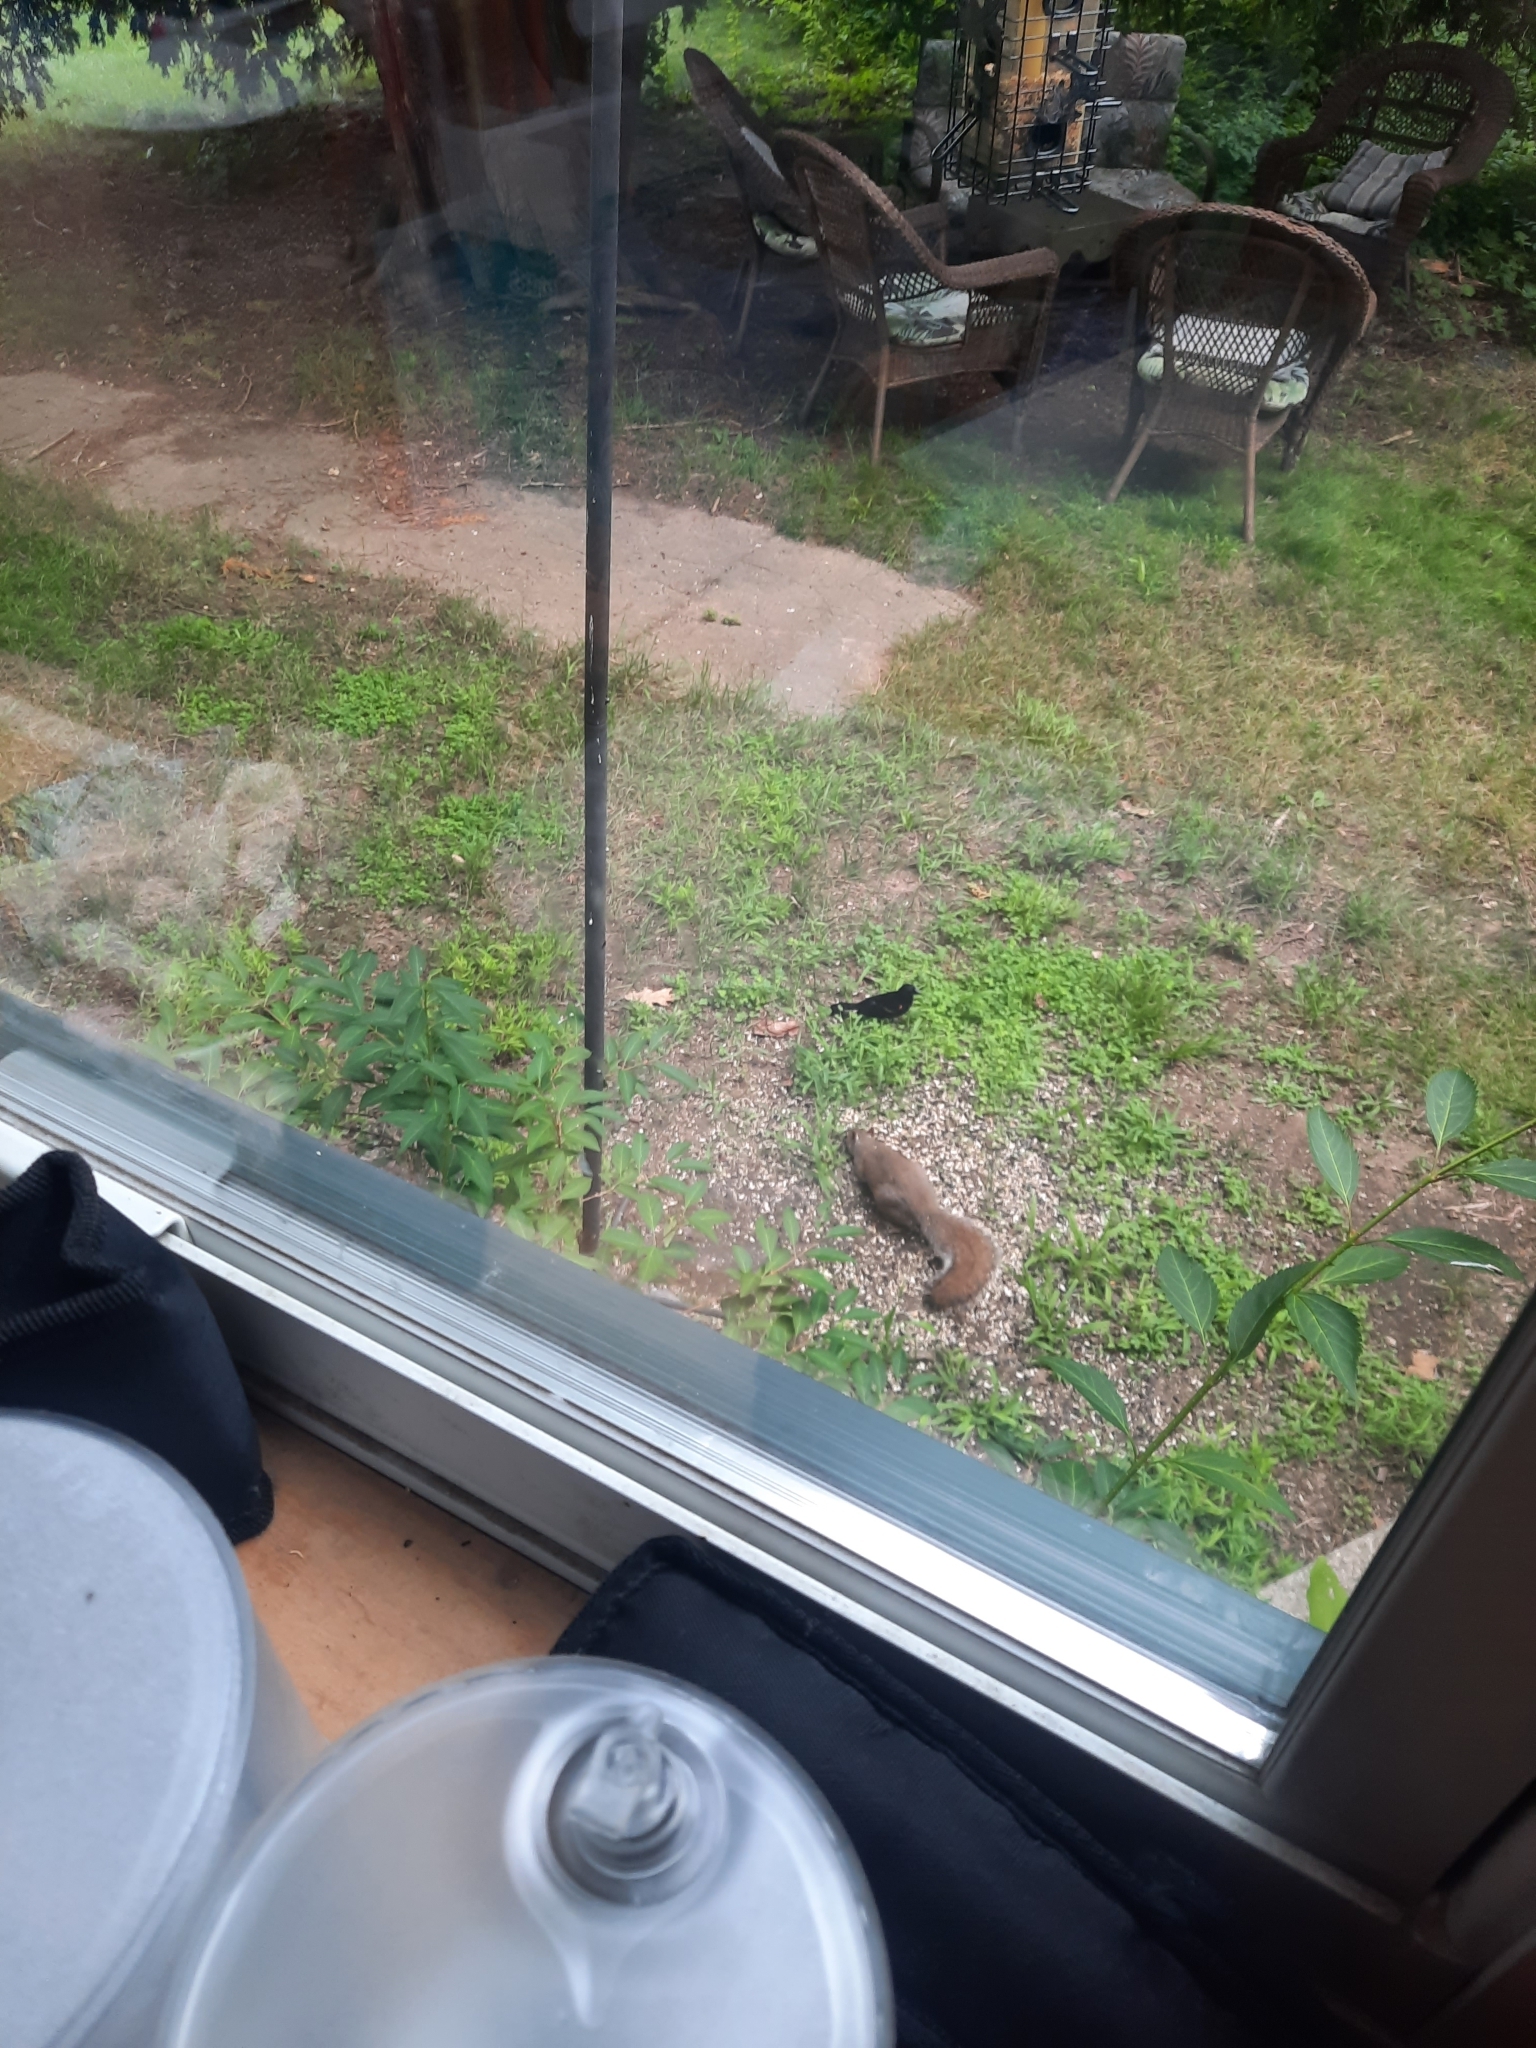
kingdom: Animalia
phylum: Chordata
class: Aves
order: Passeriformes
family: Icteridae
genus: Agelaius
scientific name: Agelaius phoeniceus
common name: Red-winged blackbird
